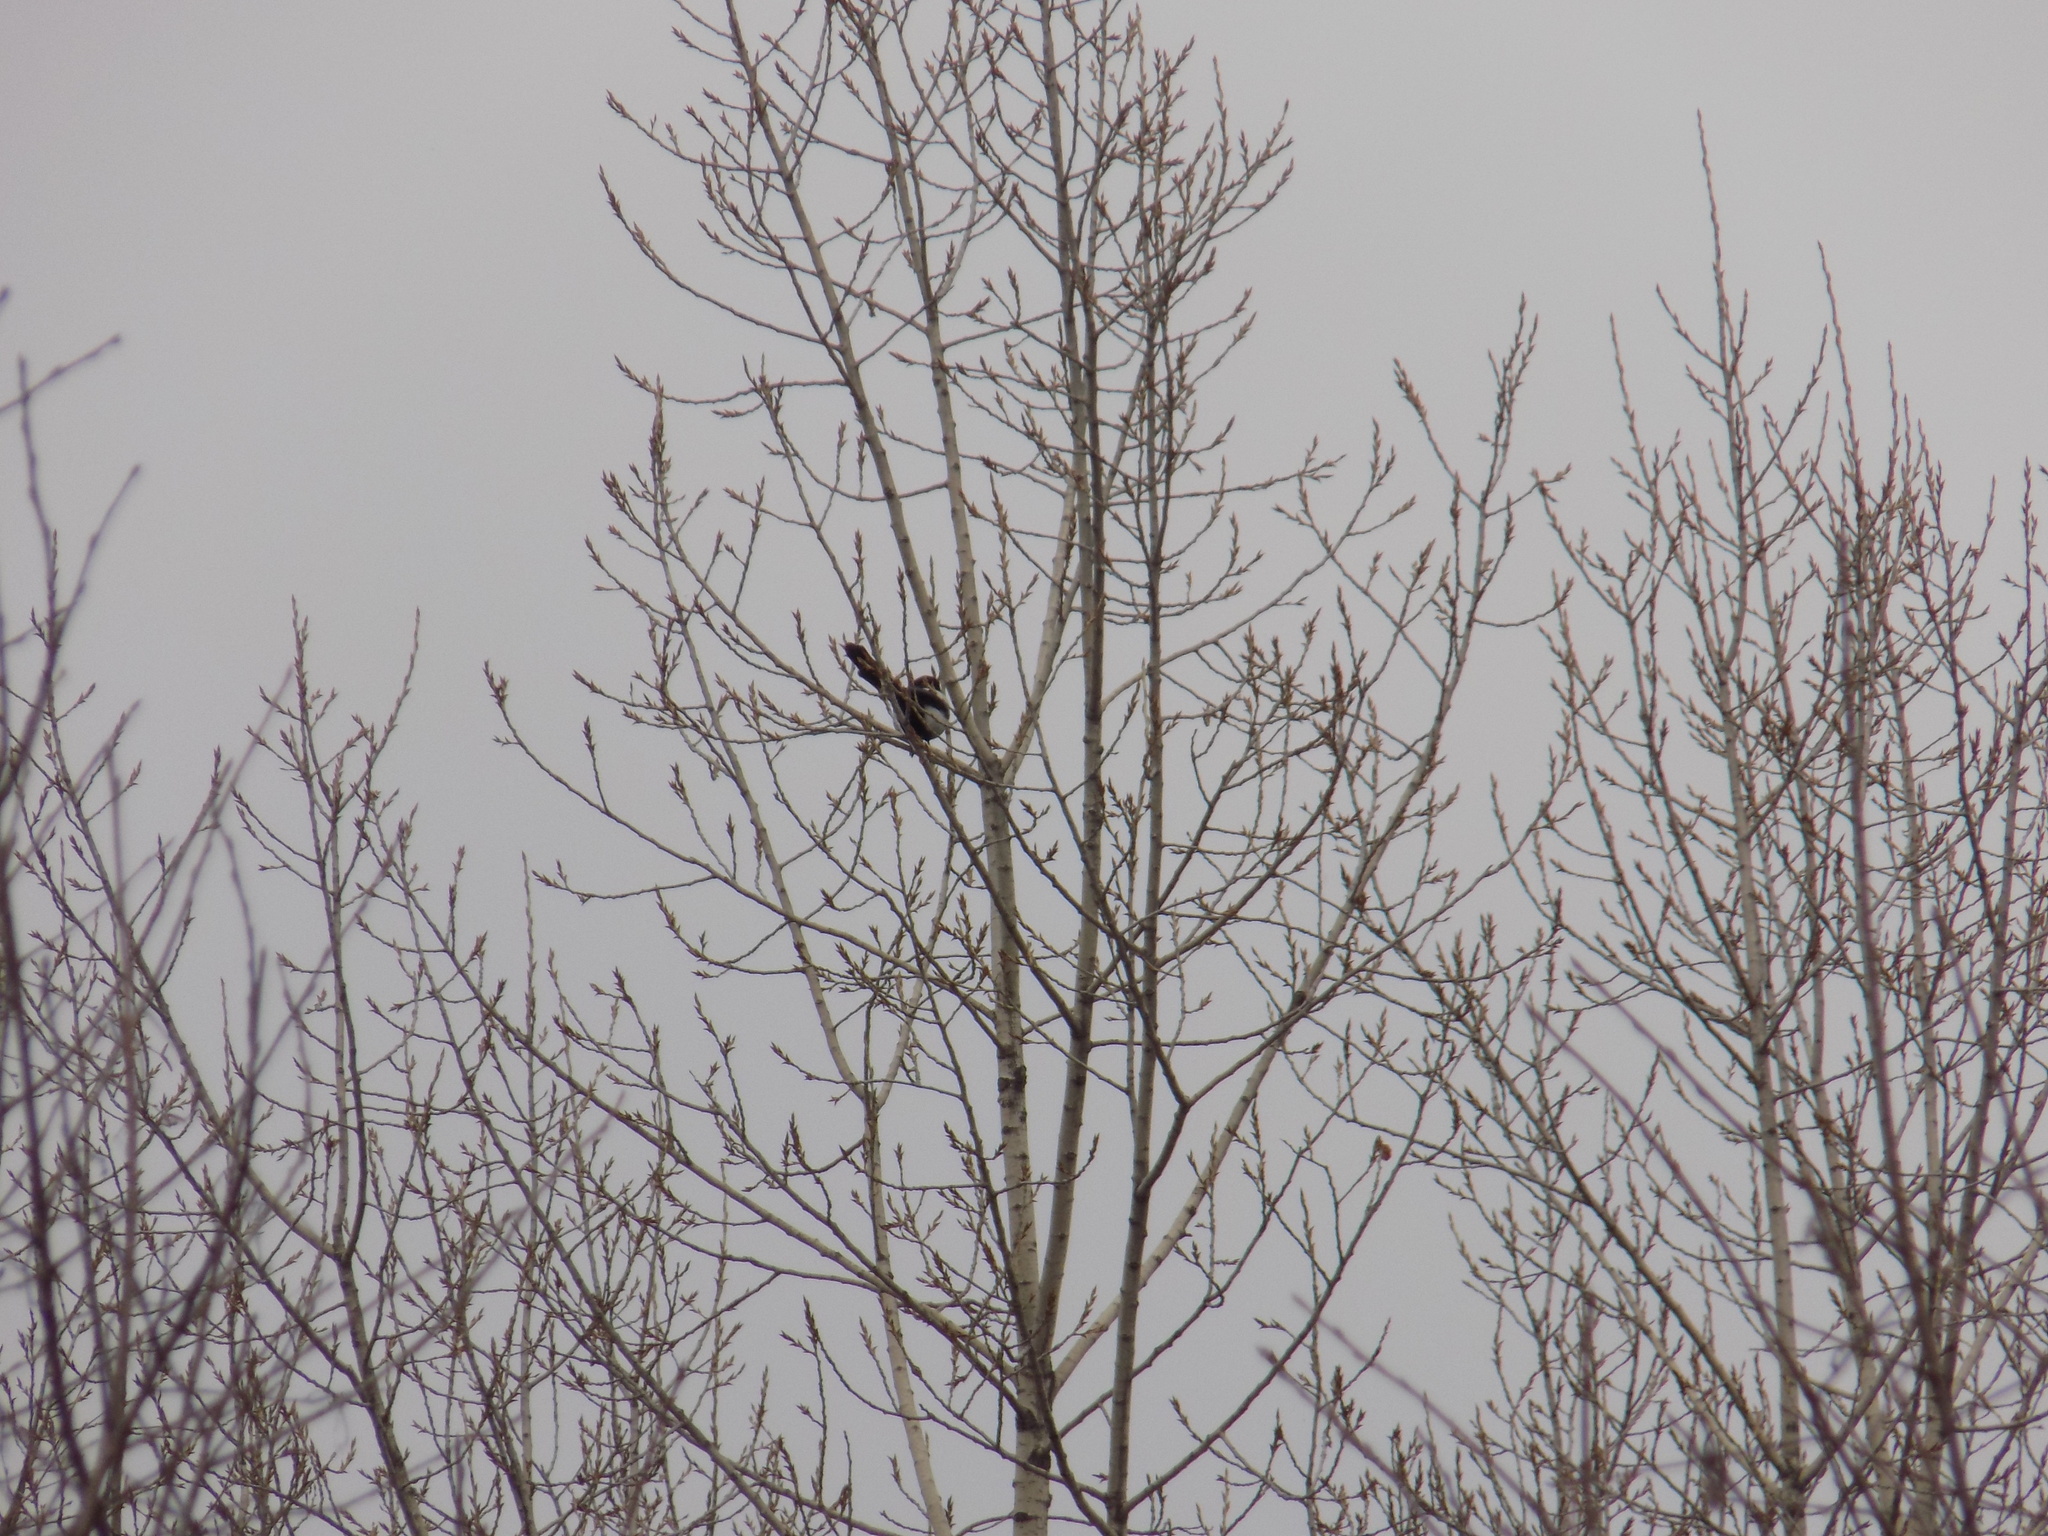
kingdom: Animalia
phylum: Chordata
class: Aves
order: Passeriformes
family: Corvidae
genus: Pica
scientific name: Pica pica
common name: Eurasian magpie
